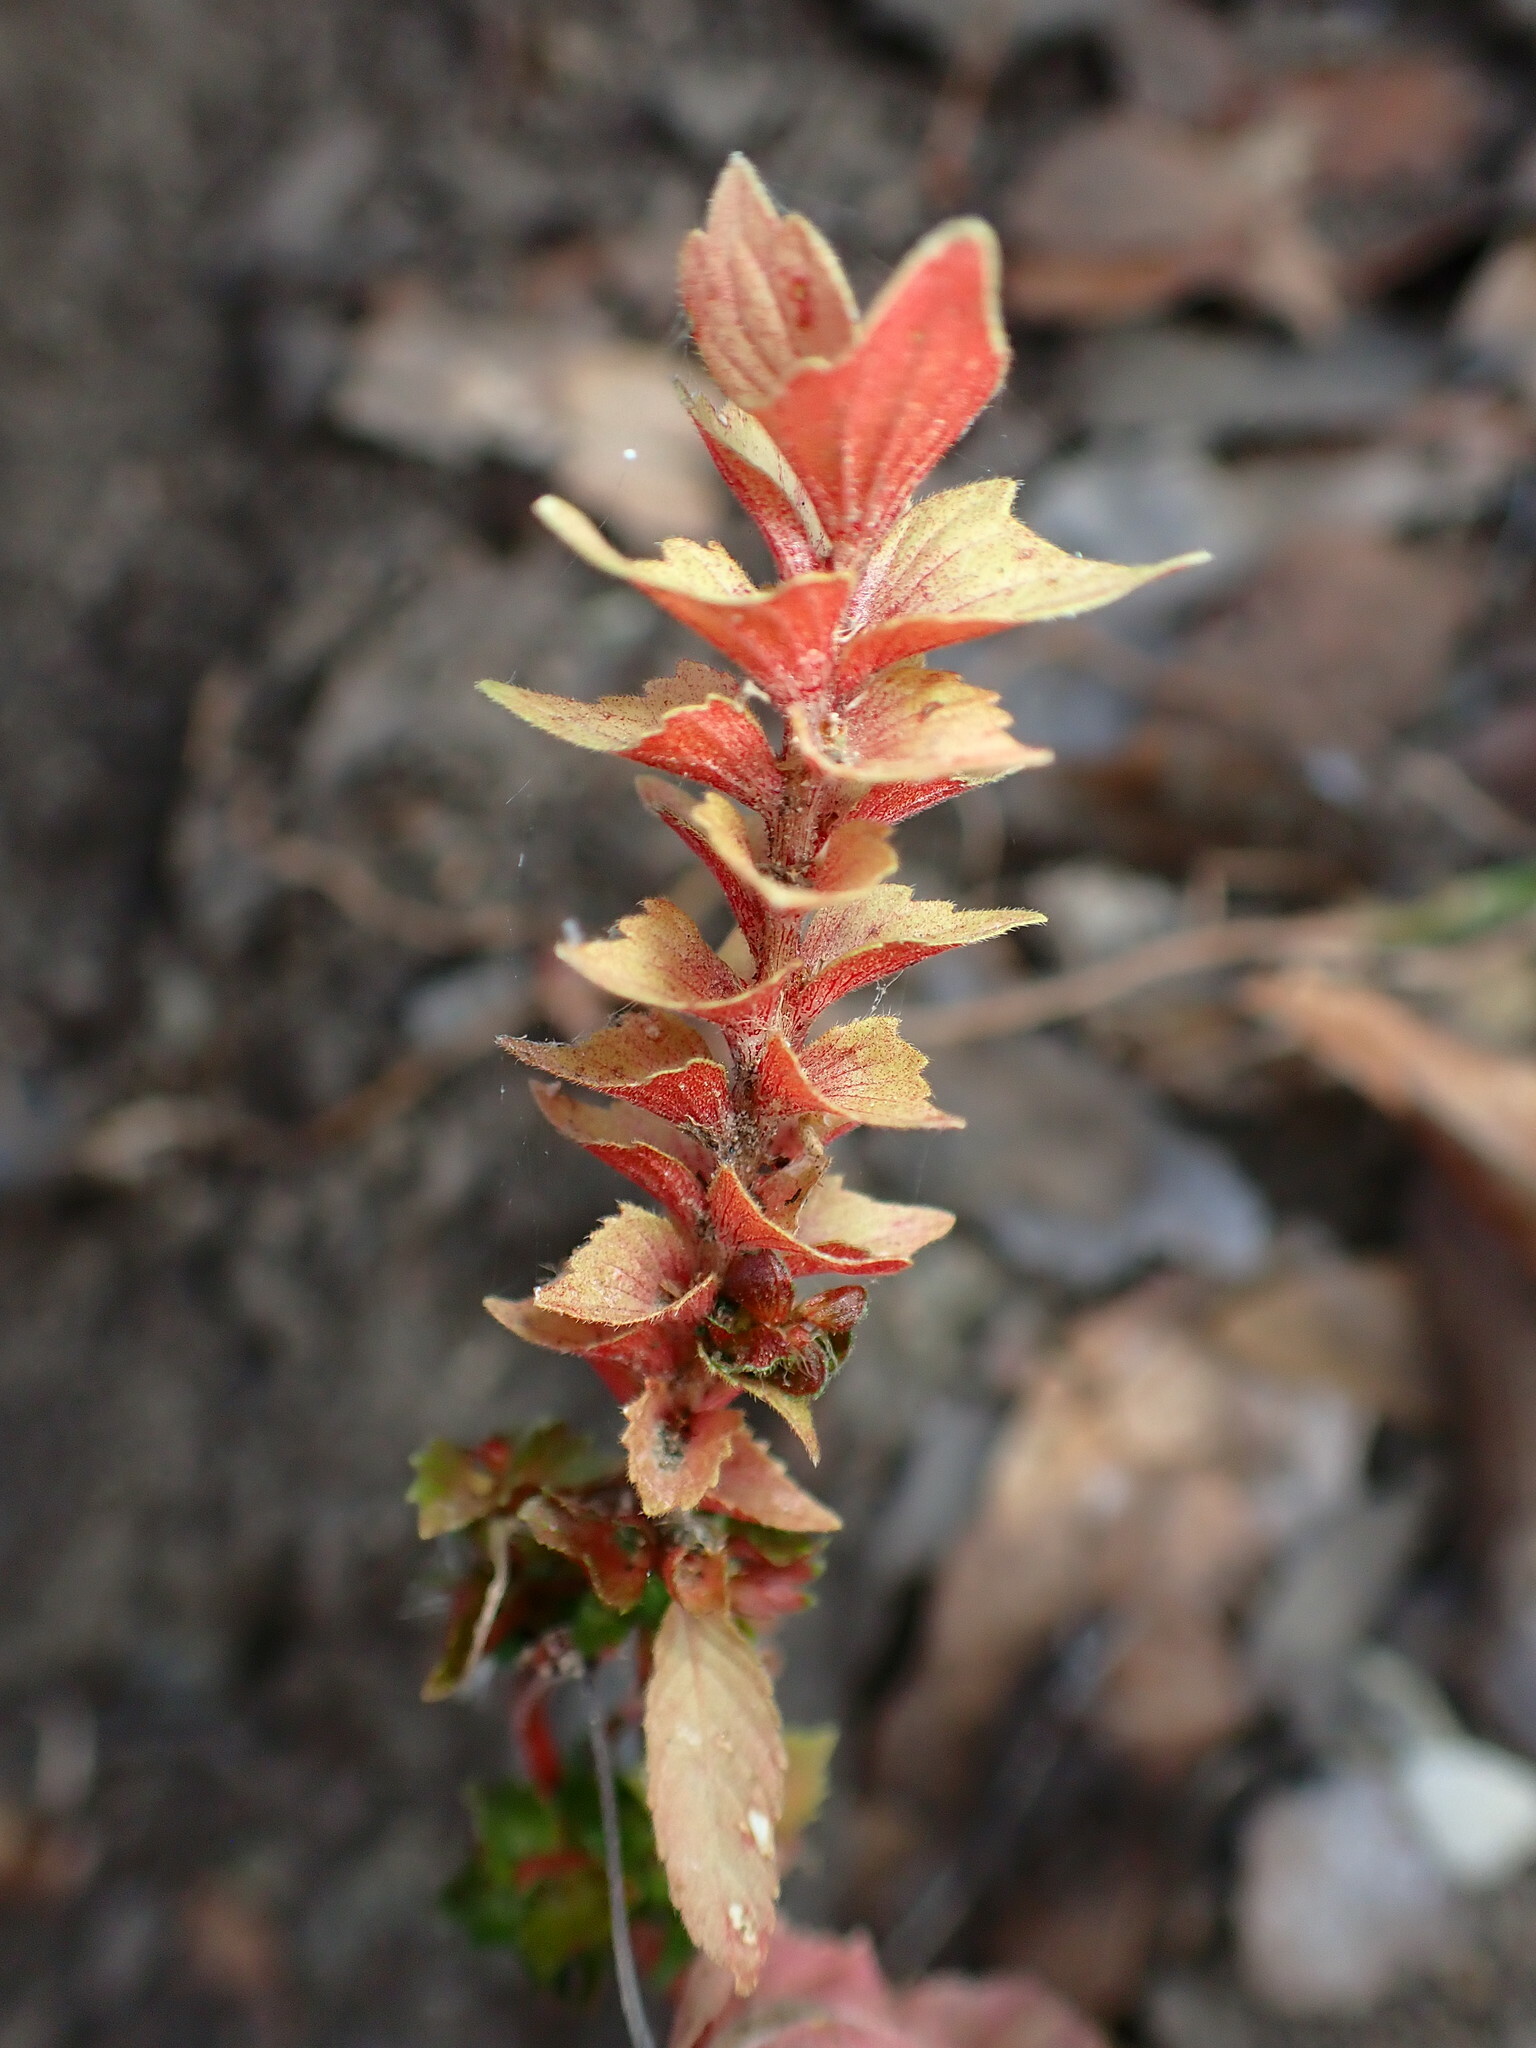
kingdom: Plantae
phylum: Tracheophyta
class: Magnoliopsida
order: Malpighiales
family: Euphorbiaceae
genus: Acalypha
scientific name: Acalypha neomexicana
